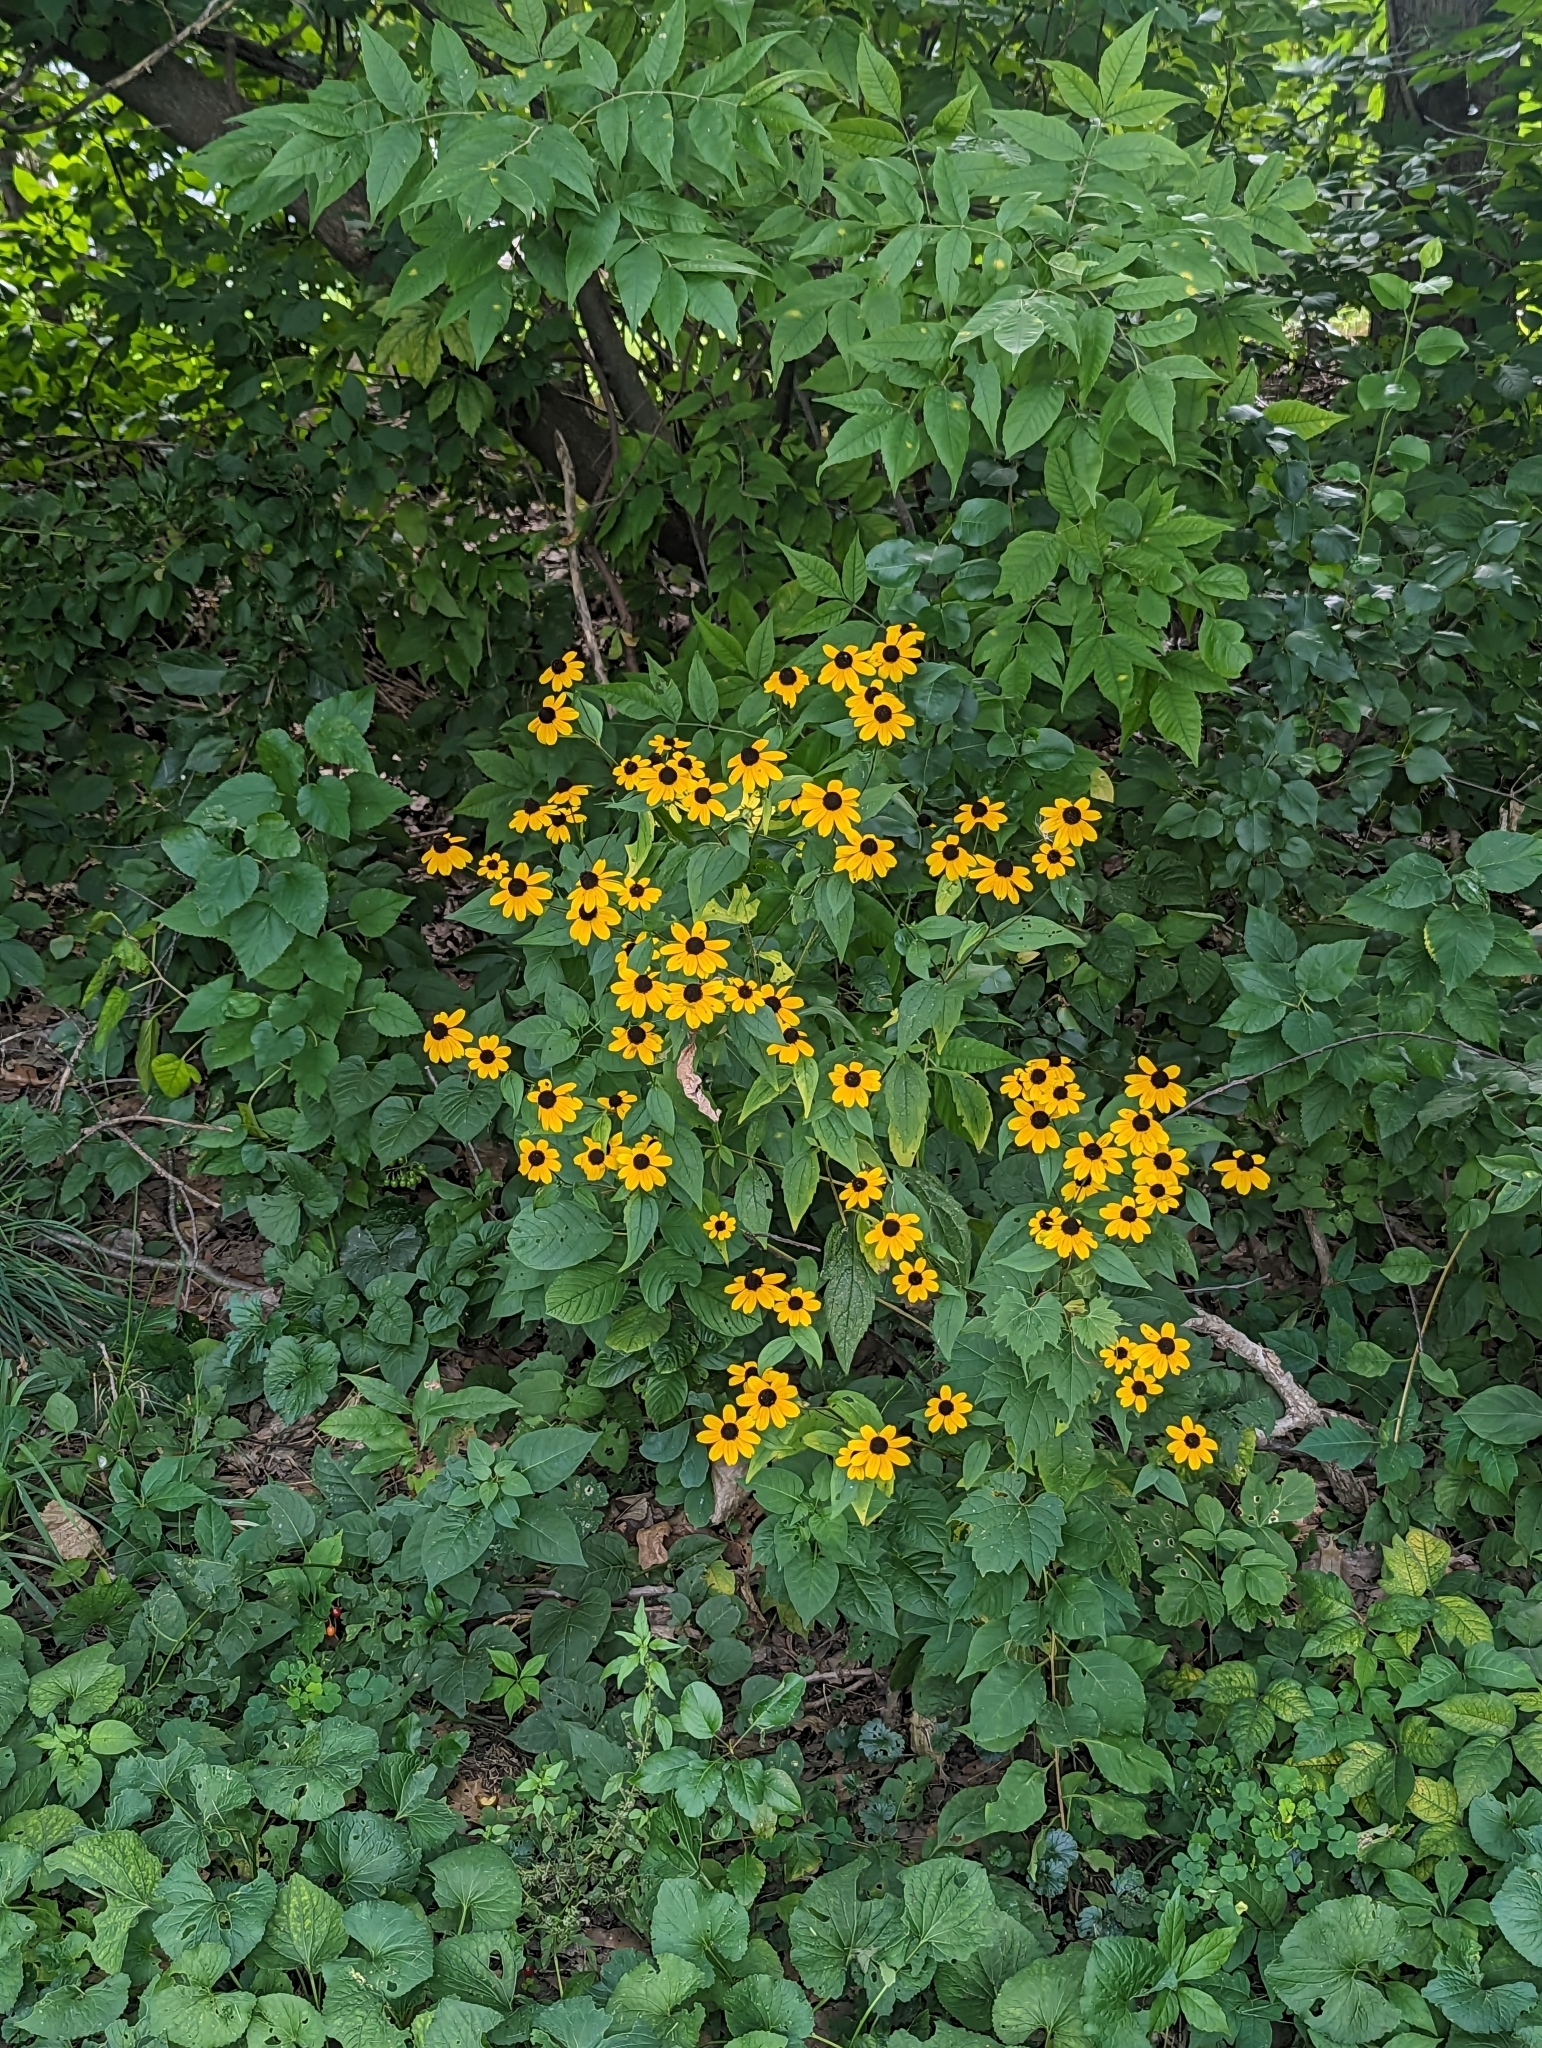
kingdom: Plantae
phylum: Tracheophyta
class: Magnoliopsida
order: Asterales
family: Asteraceae
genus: Rudbeckia
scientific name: Rudbeckia triloba
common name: Thin-leaved coneflower
